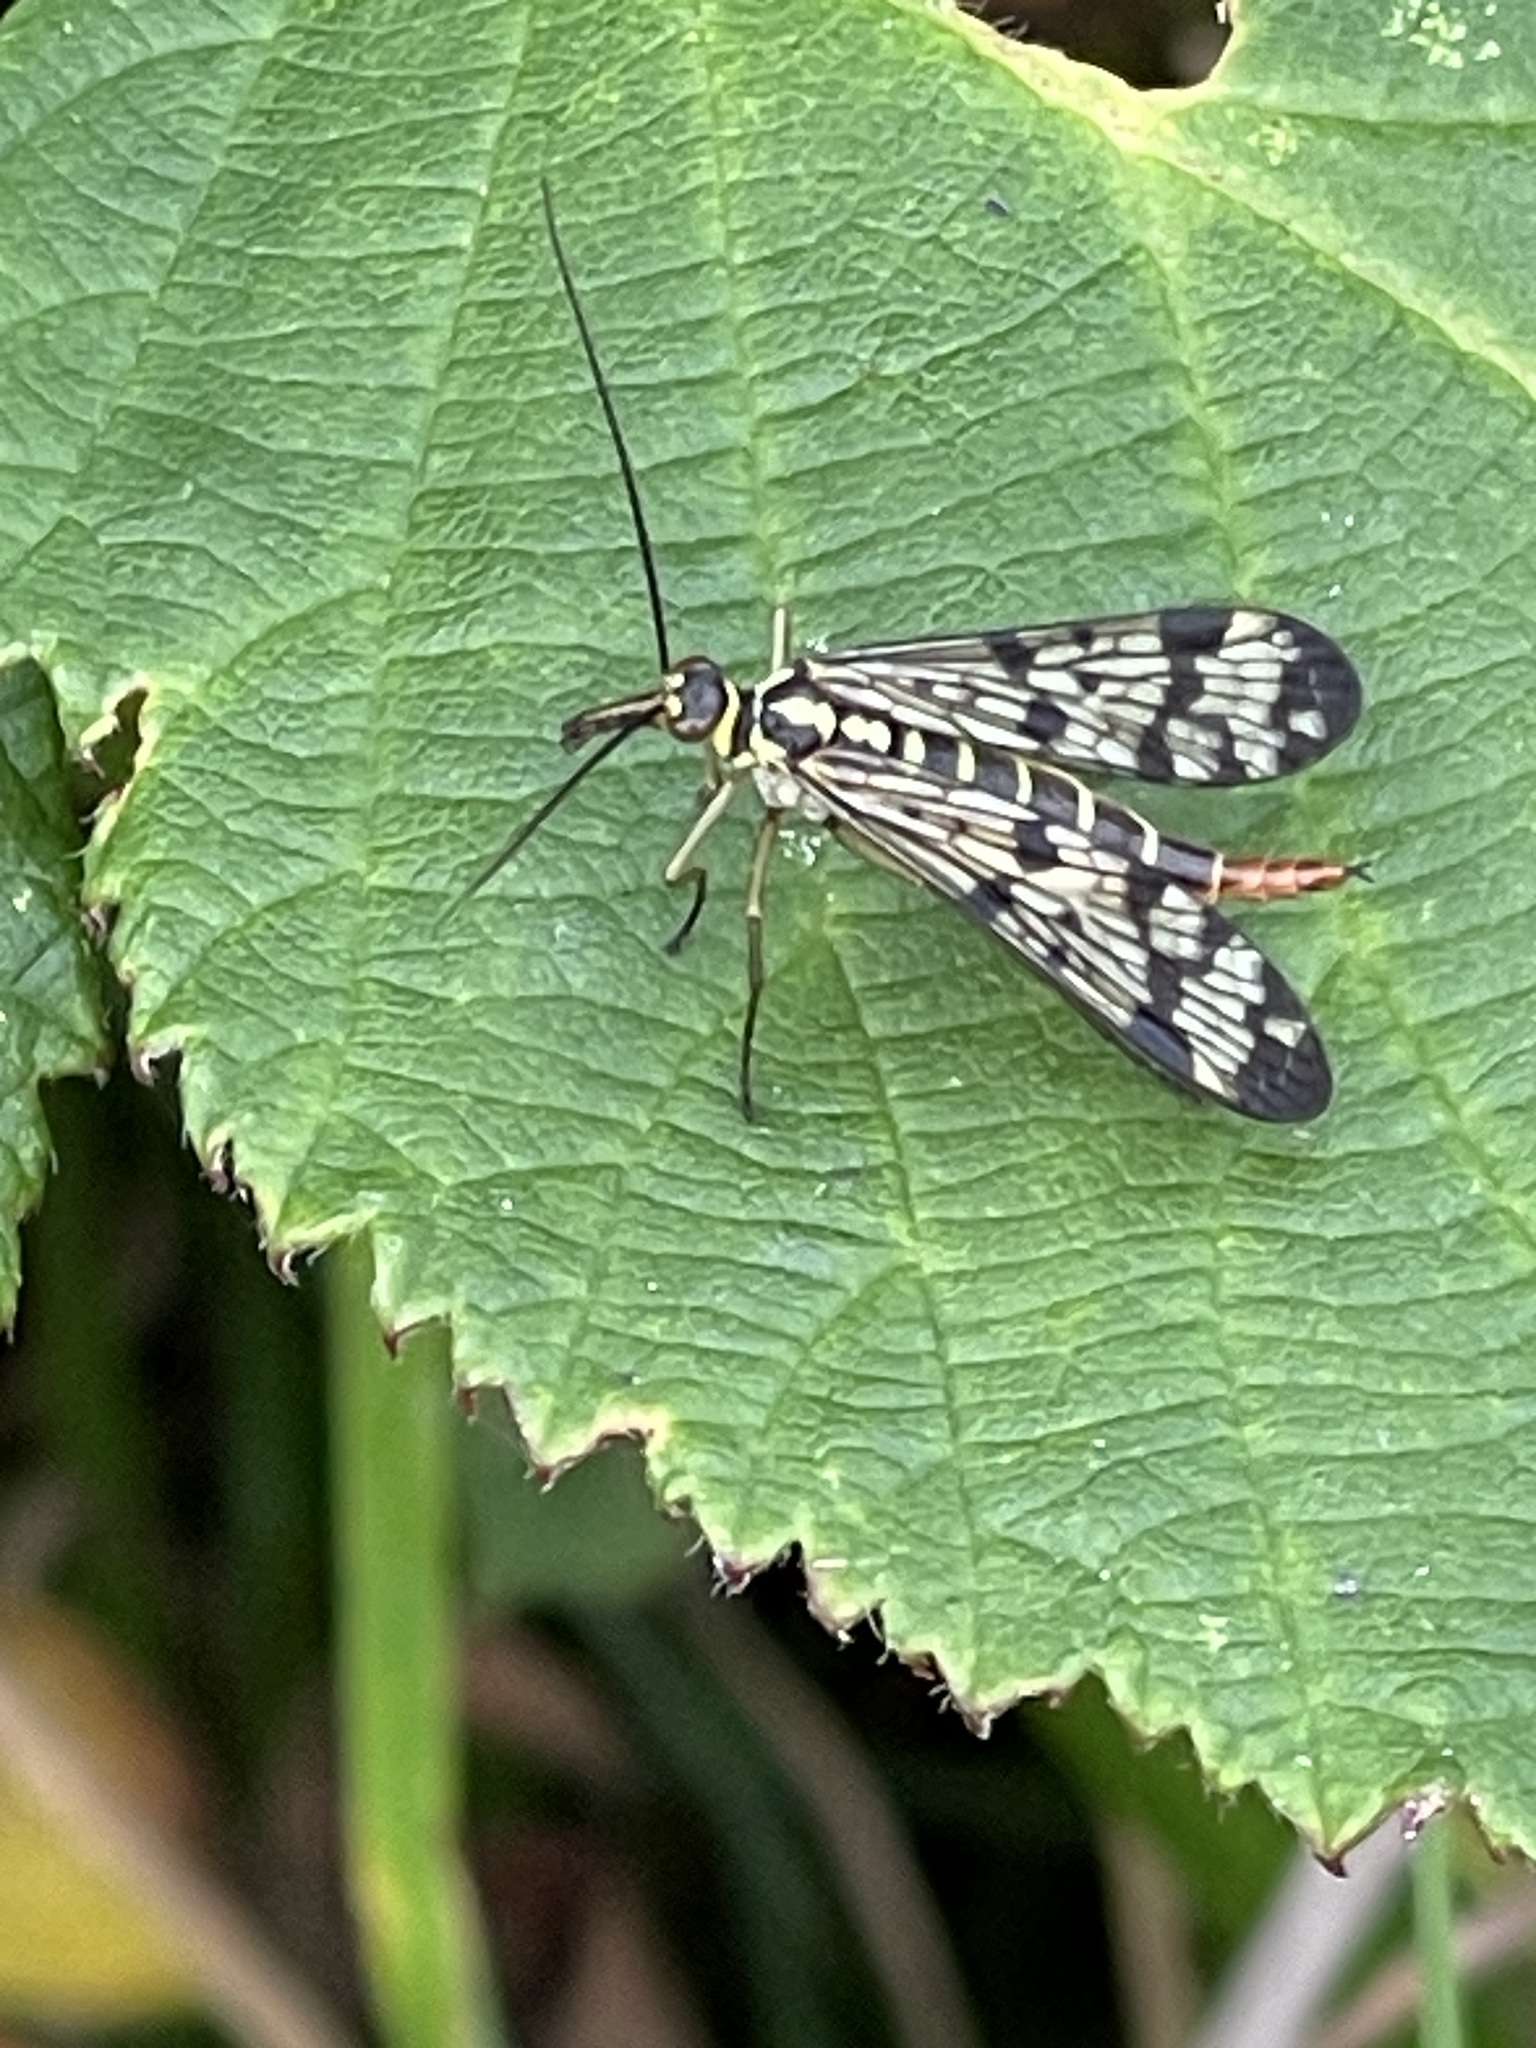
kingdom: Animalia
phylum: Arthropoda
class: Insecta
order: Mecoptera
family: Panorpidae
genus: Panorpa
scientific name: Panorpa
